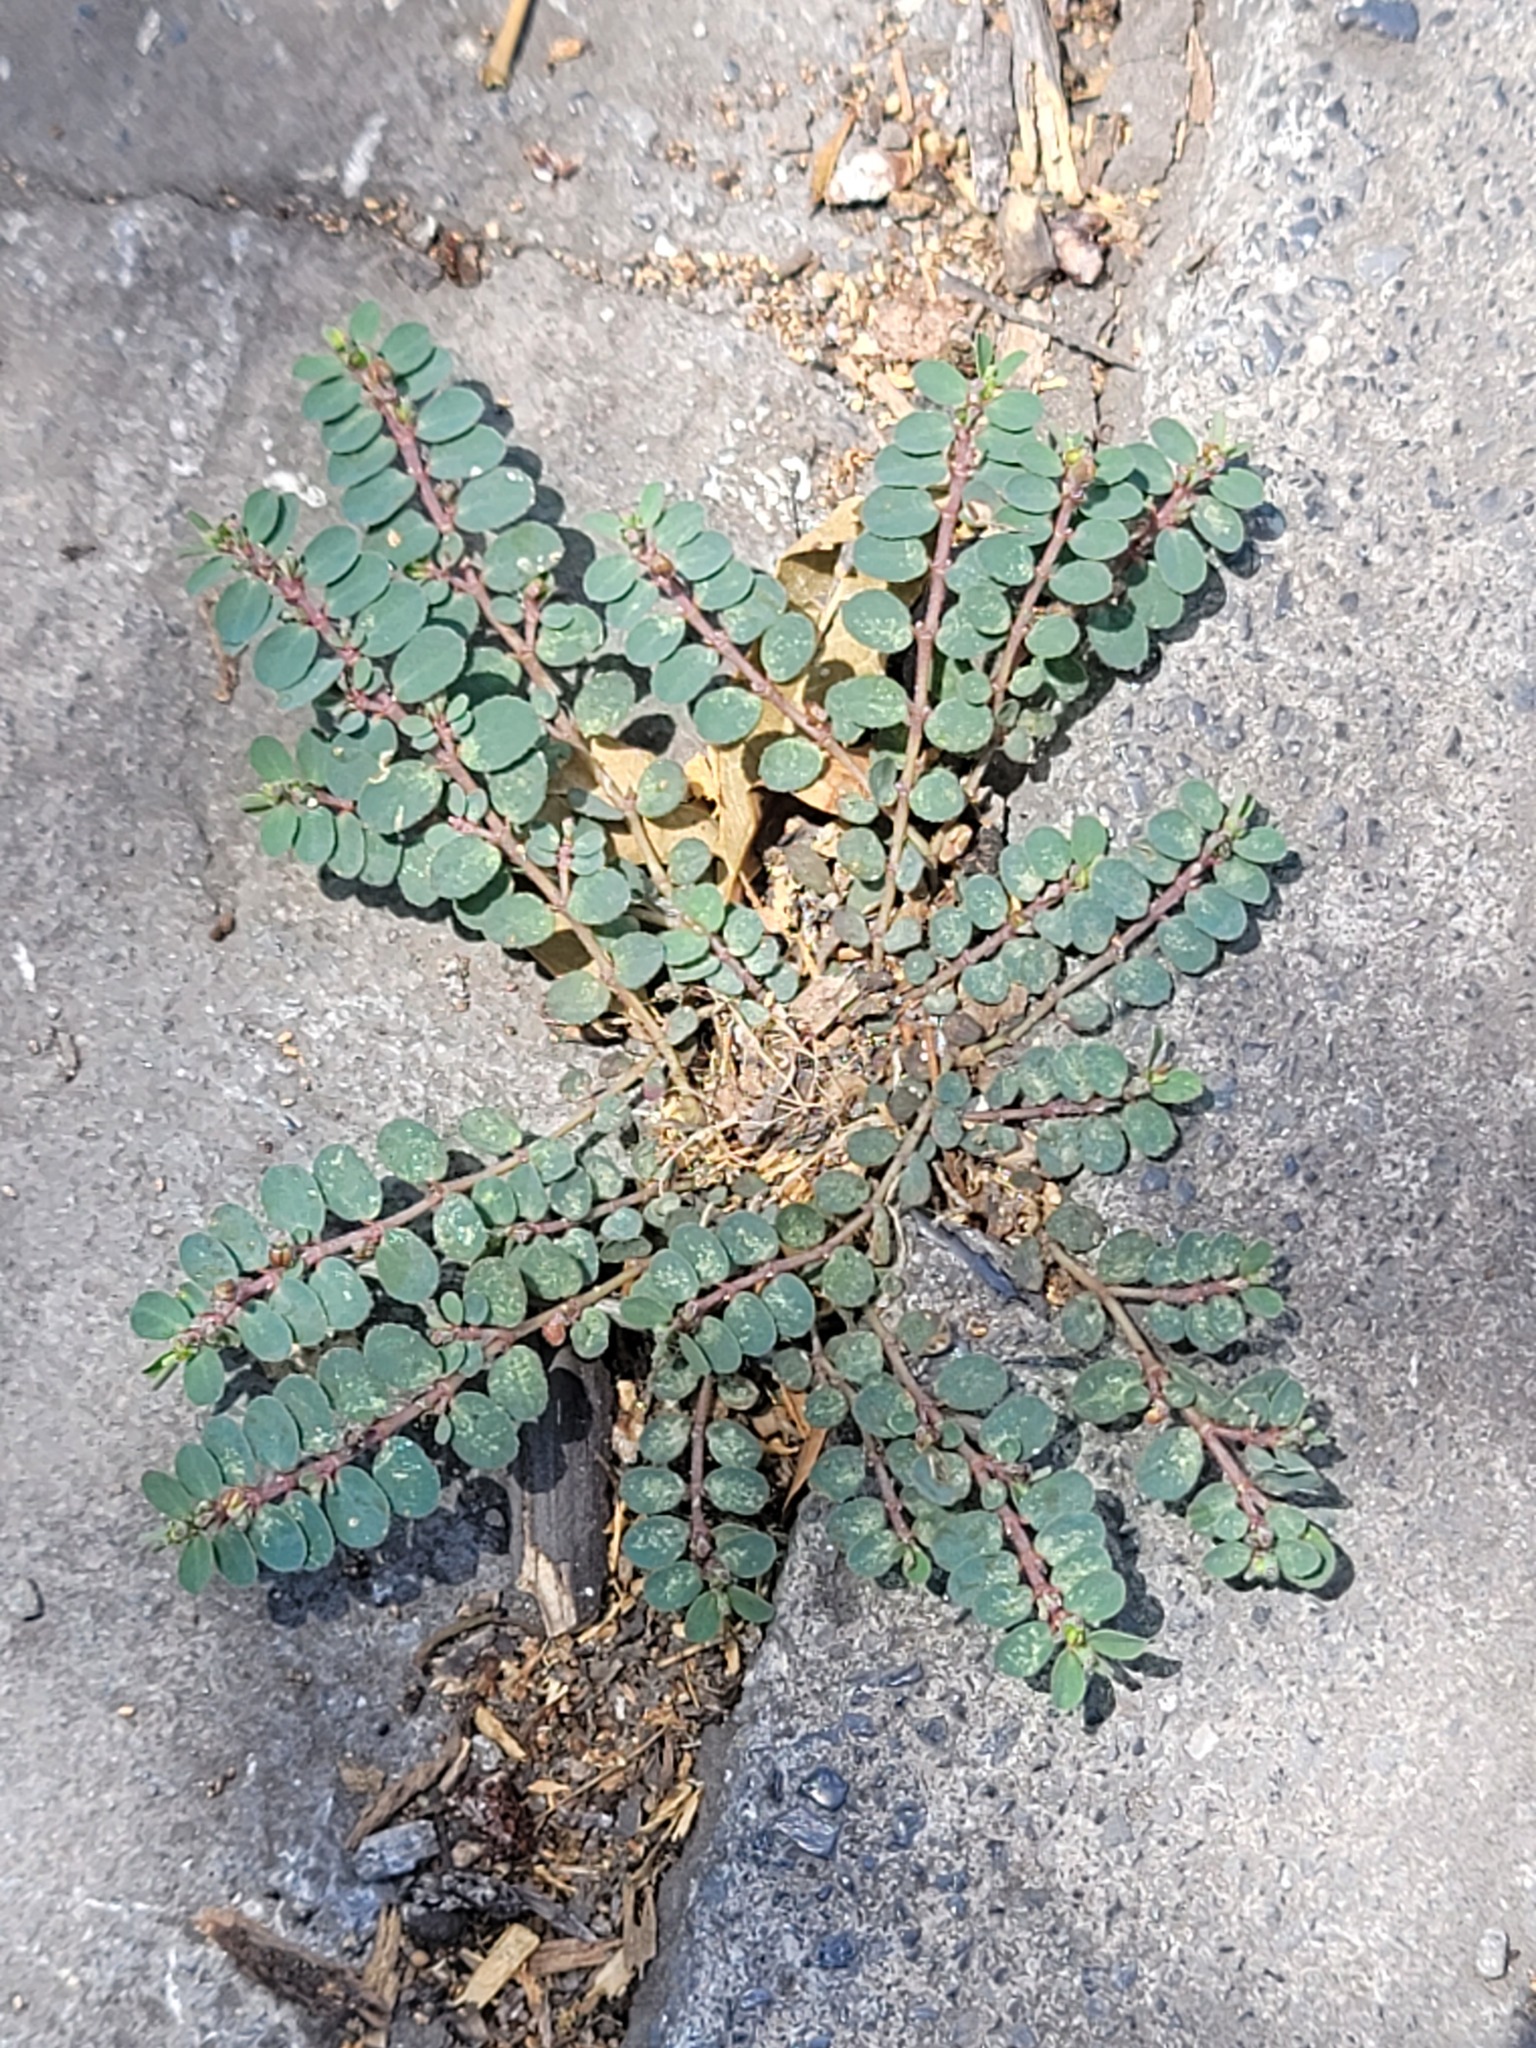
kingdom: Plantae
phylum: Tracheophyta
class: Magnoliopsida
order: Malpighiales
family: Euphorbiaceae
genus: Euphorbia
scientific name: Euphorbia prostrata
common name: Prostrate sandmat
